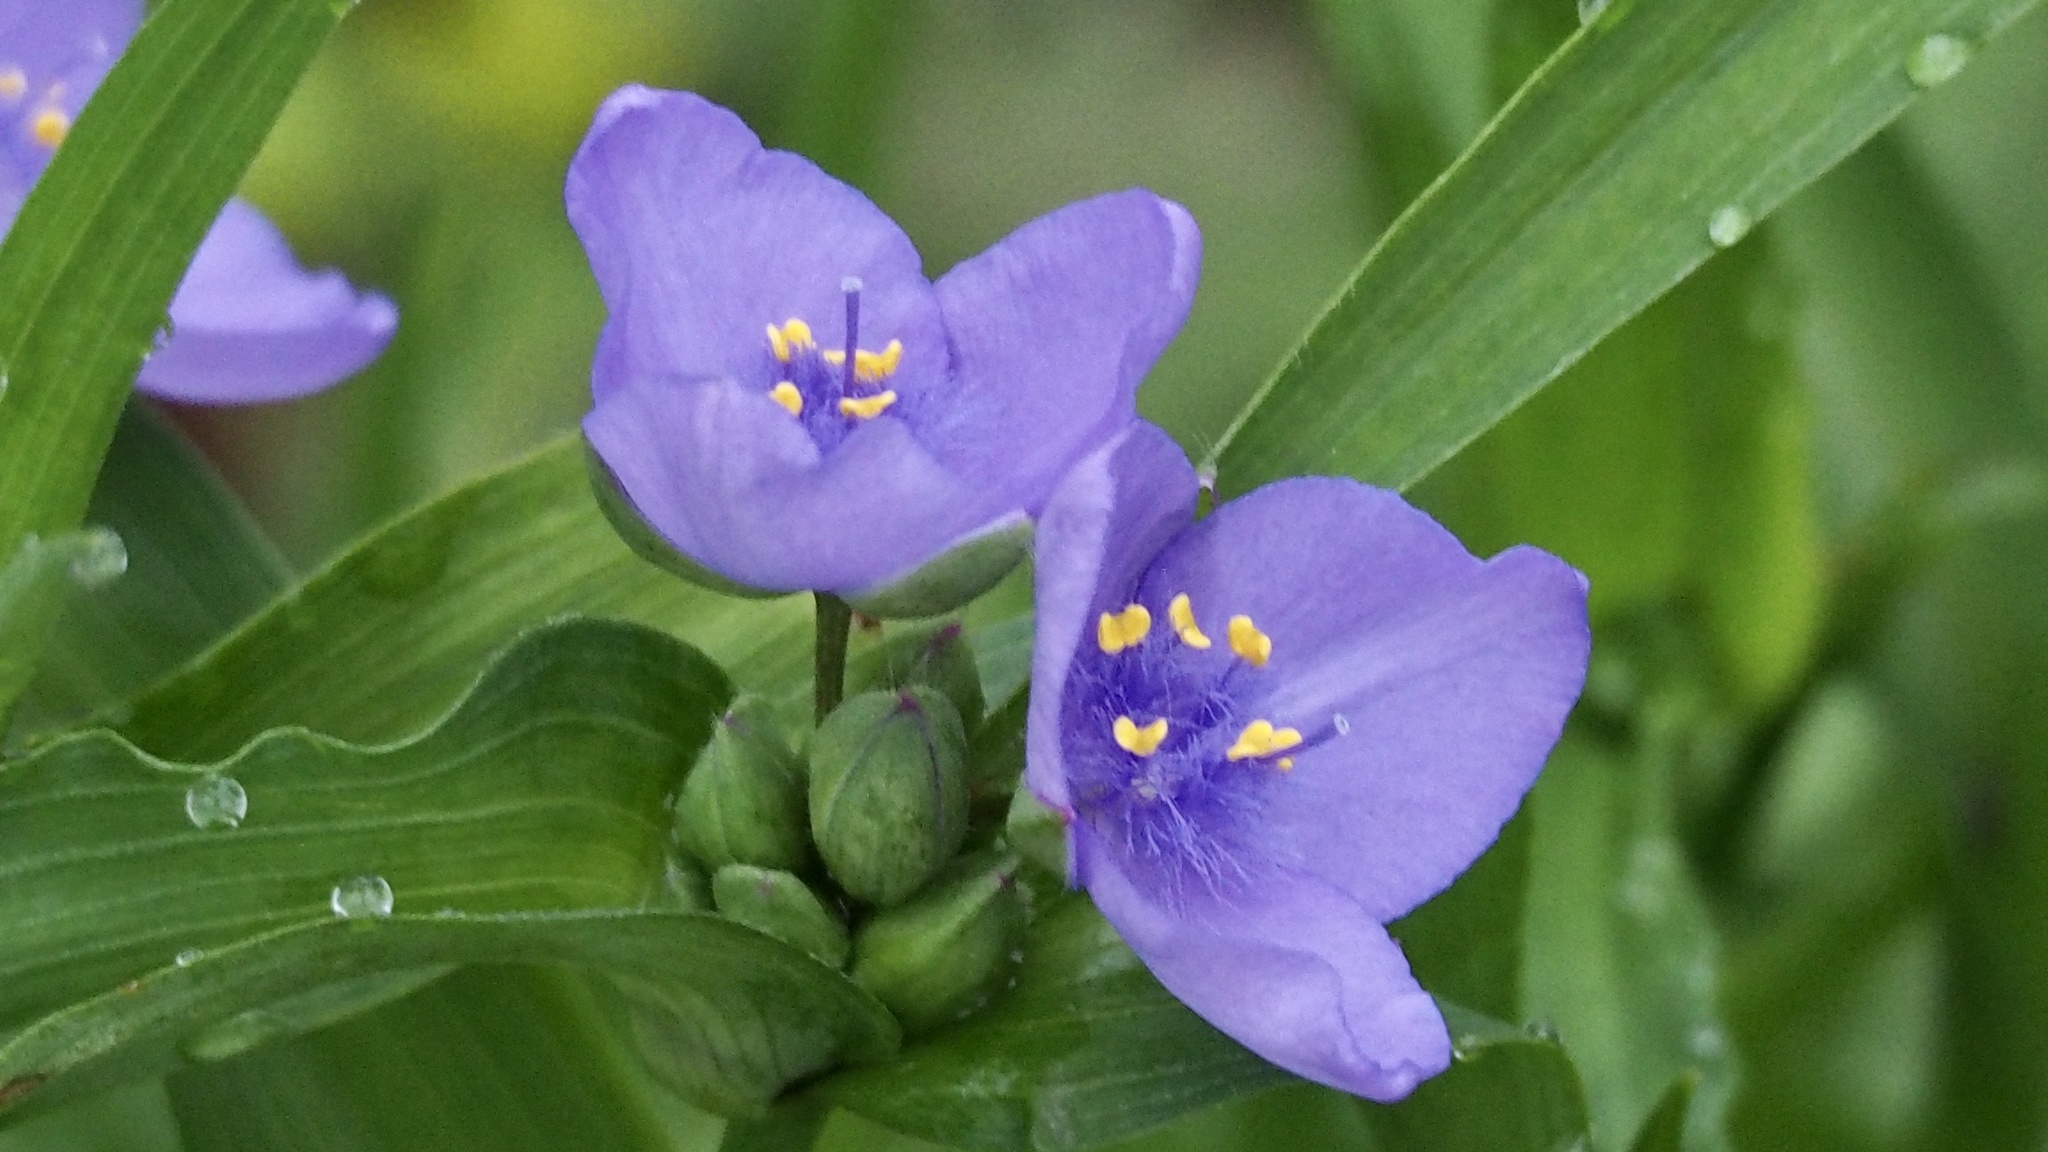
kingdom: Plantae
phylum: Tracheophyta
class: Liliopsida
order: Commelinales
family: Commelinaceae
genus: Tradescantia
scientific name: Tradescantia ohiensis
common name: Ohio spiderwort
